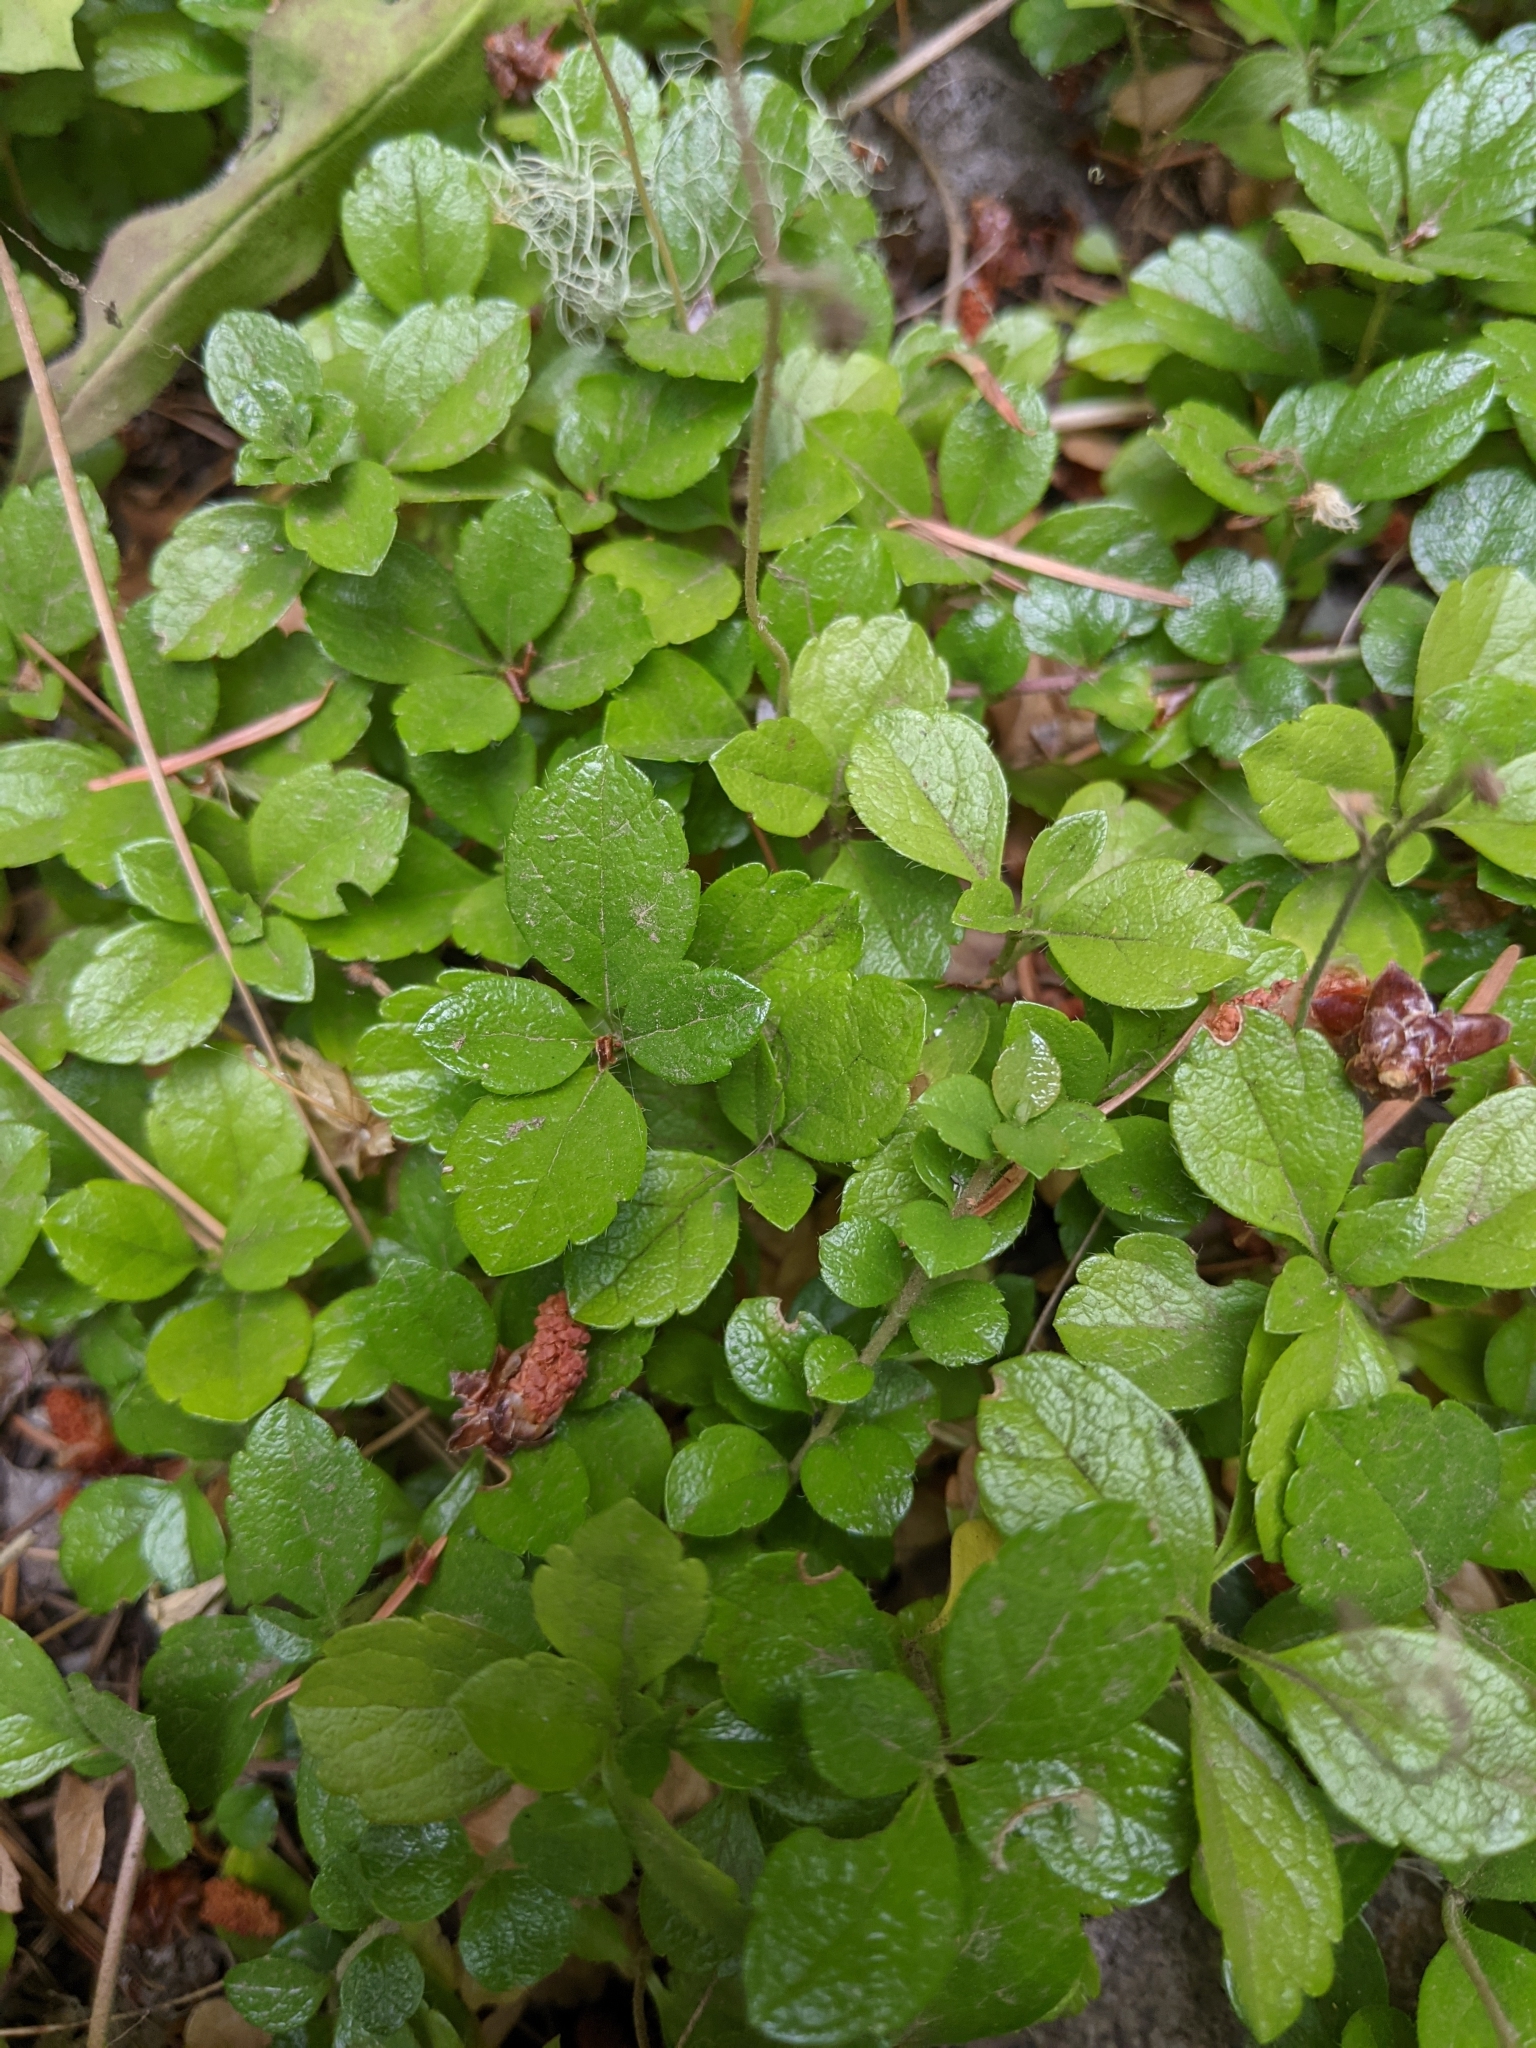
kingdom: Plantae
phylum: Tracheophyta
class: Magnoliopsida
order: Dipsacales
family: Caprifoliaceae
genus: Linnaea
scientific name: Linnaea borealis
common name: Twinflower
